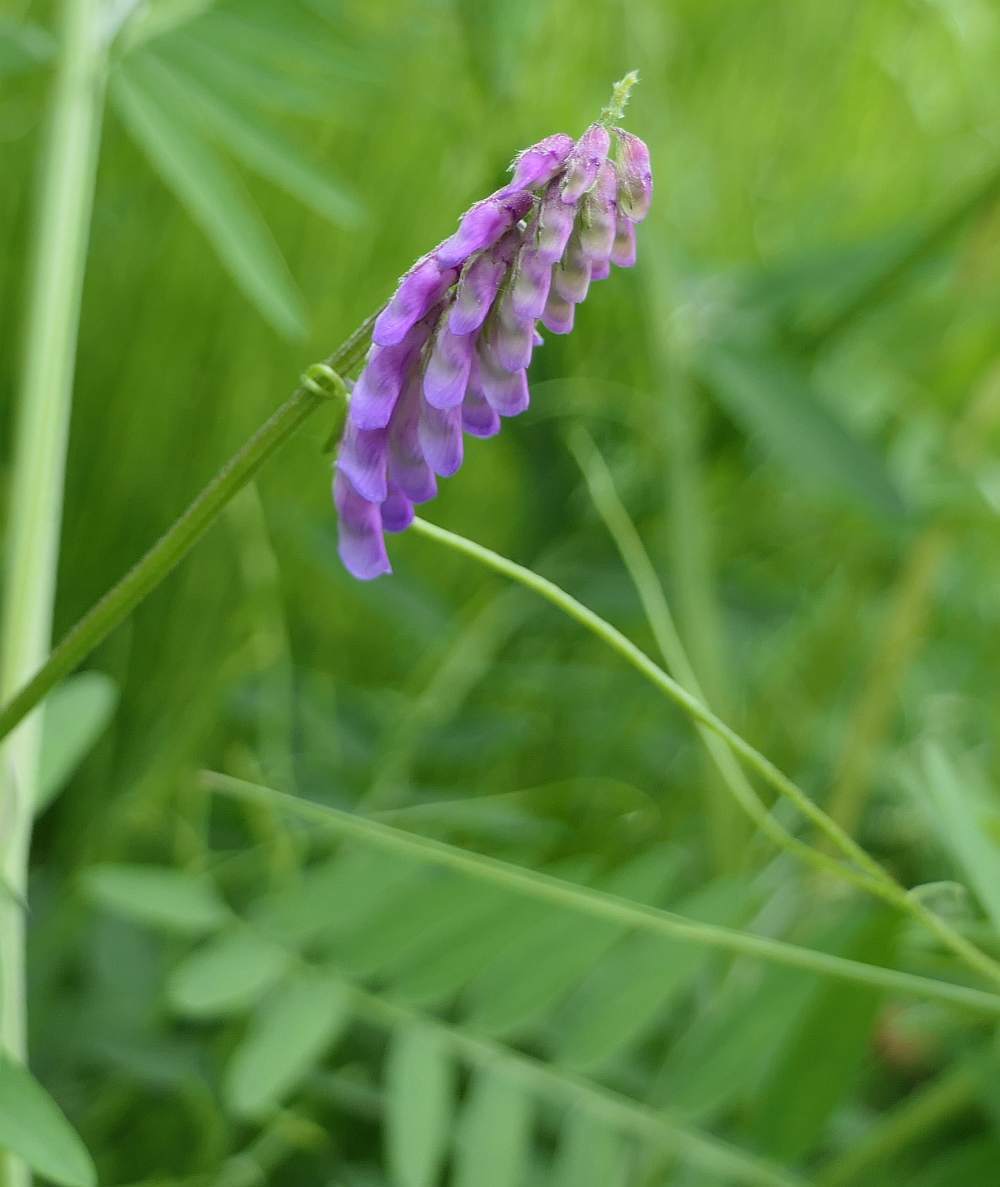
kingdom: Plantae
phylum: Tracheophyta
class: Magnoliopsida
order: Fabales
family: Fabaceae
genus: Vicia
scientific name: Vicia cracca
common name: Bird vetch
